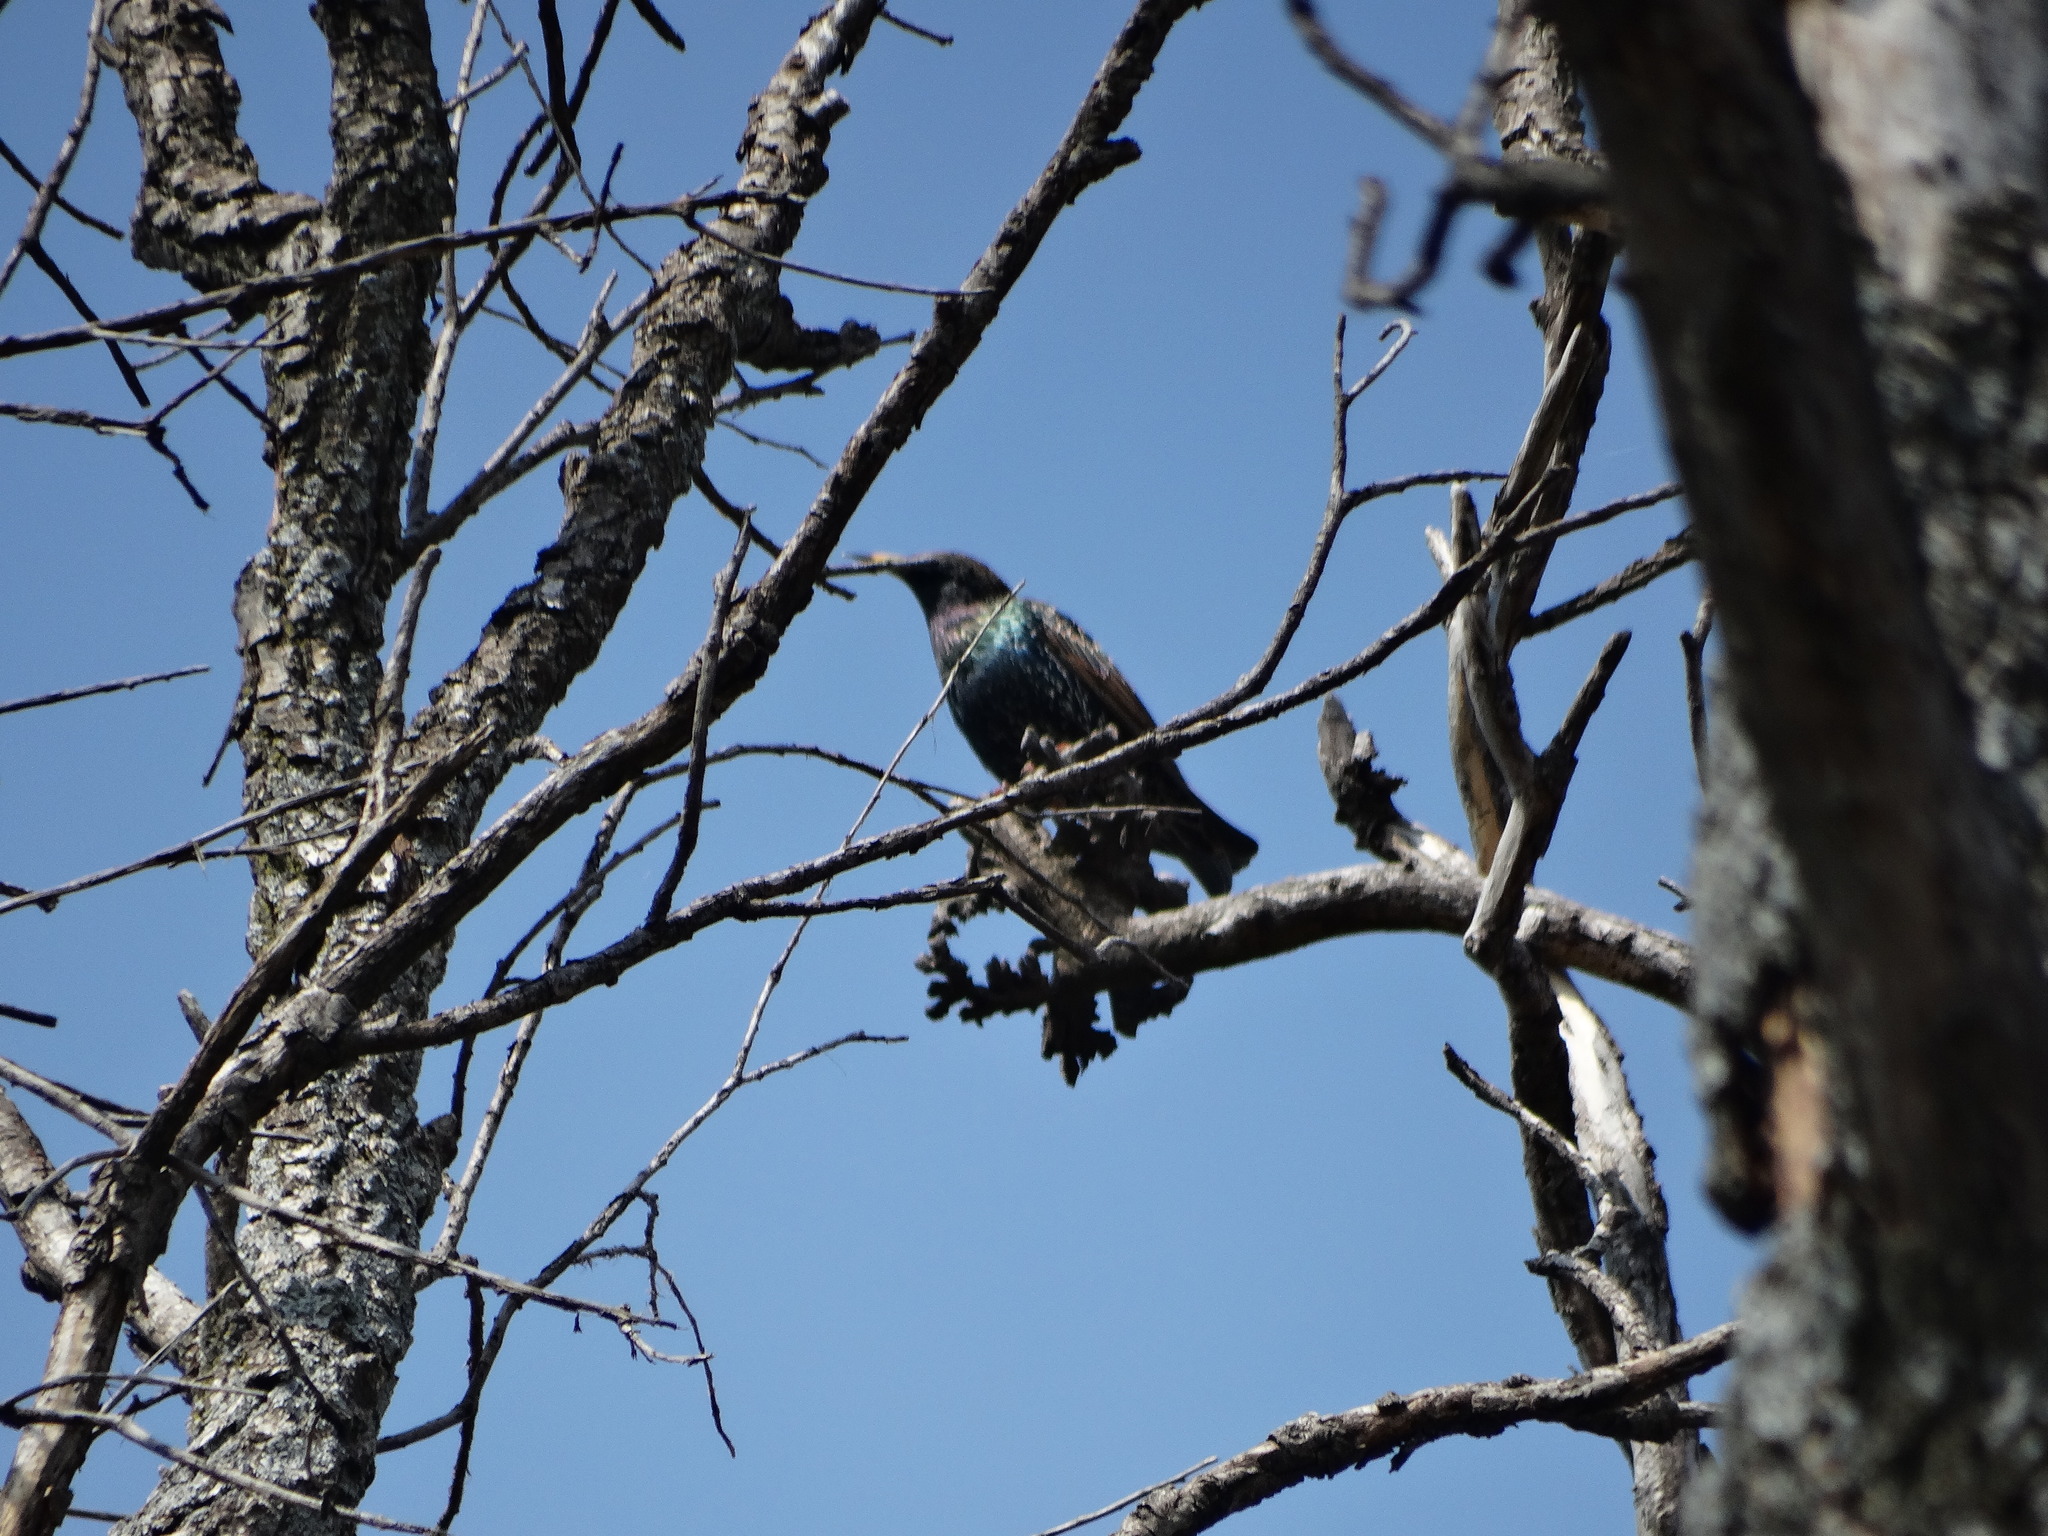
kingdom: Animalia
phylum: Chordata
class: Aves
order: Passeriformes
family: Sturnidae
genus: Sturnus
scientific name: Sturnus vulgaris
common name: Common starling
